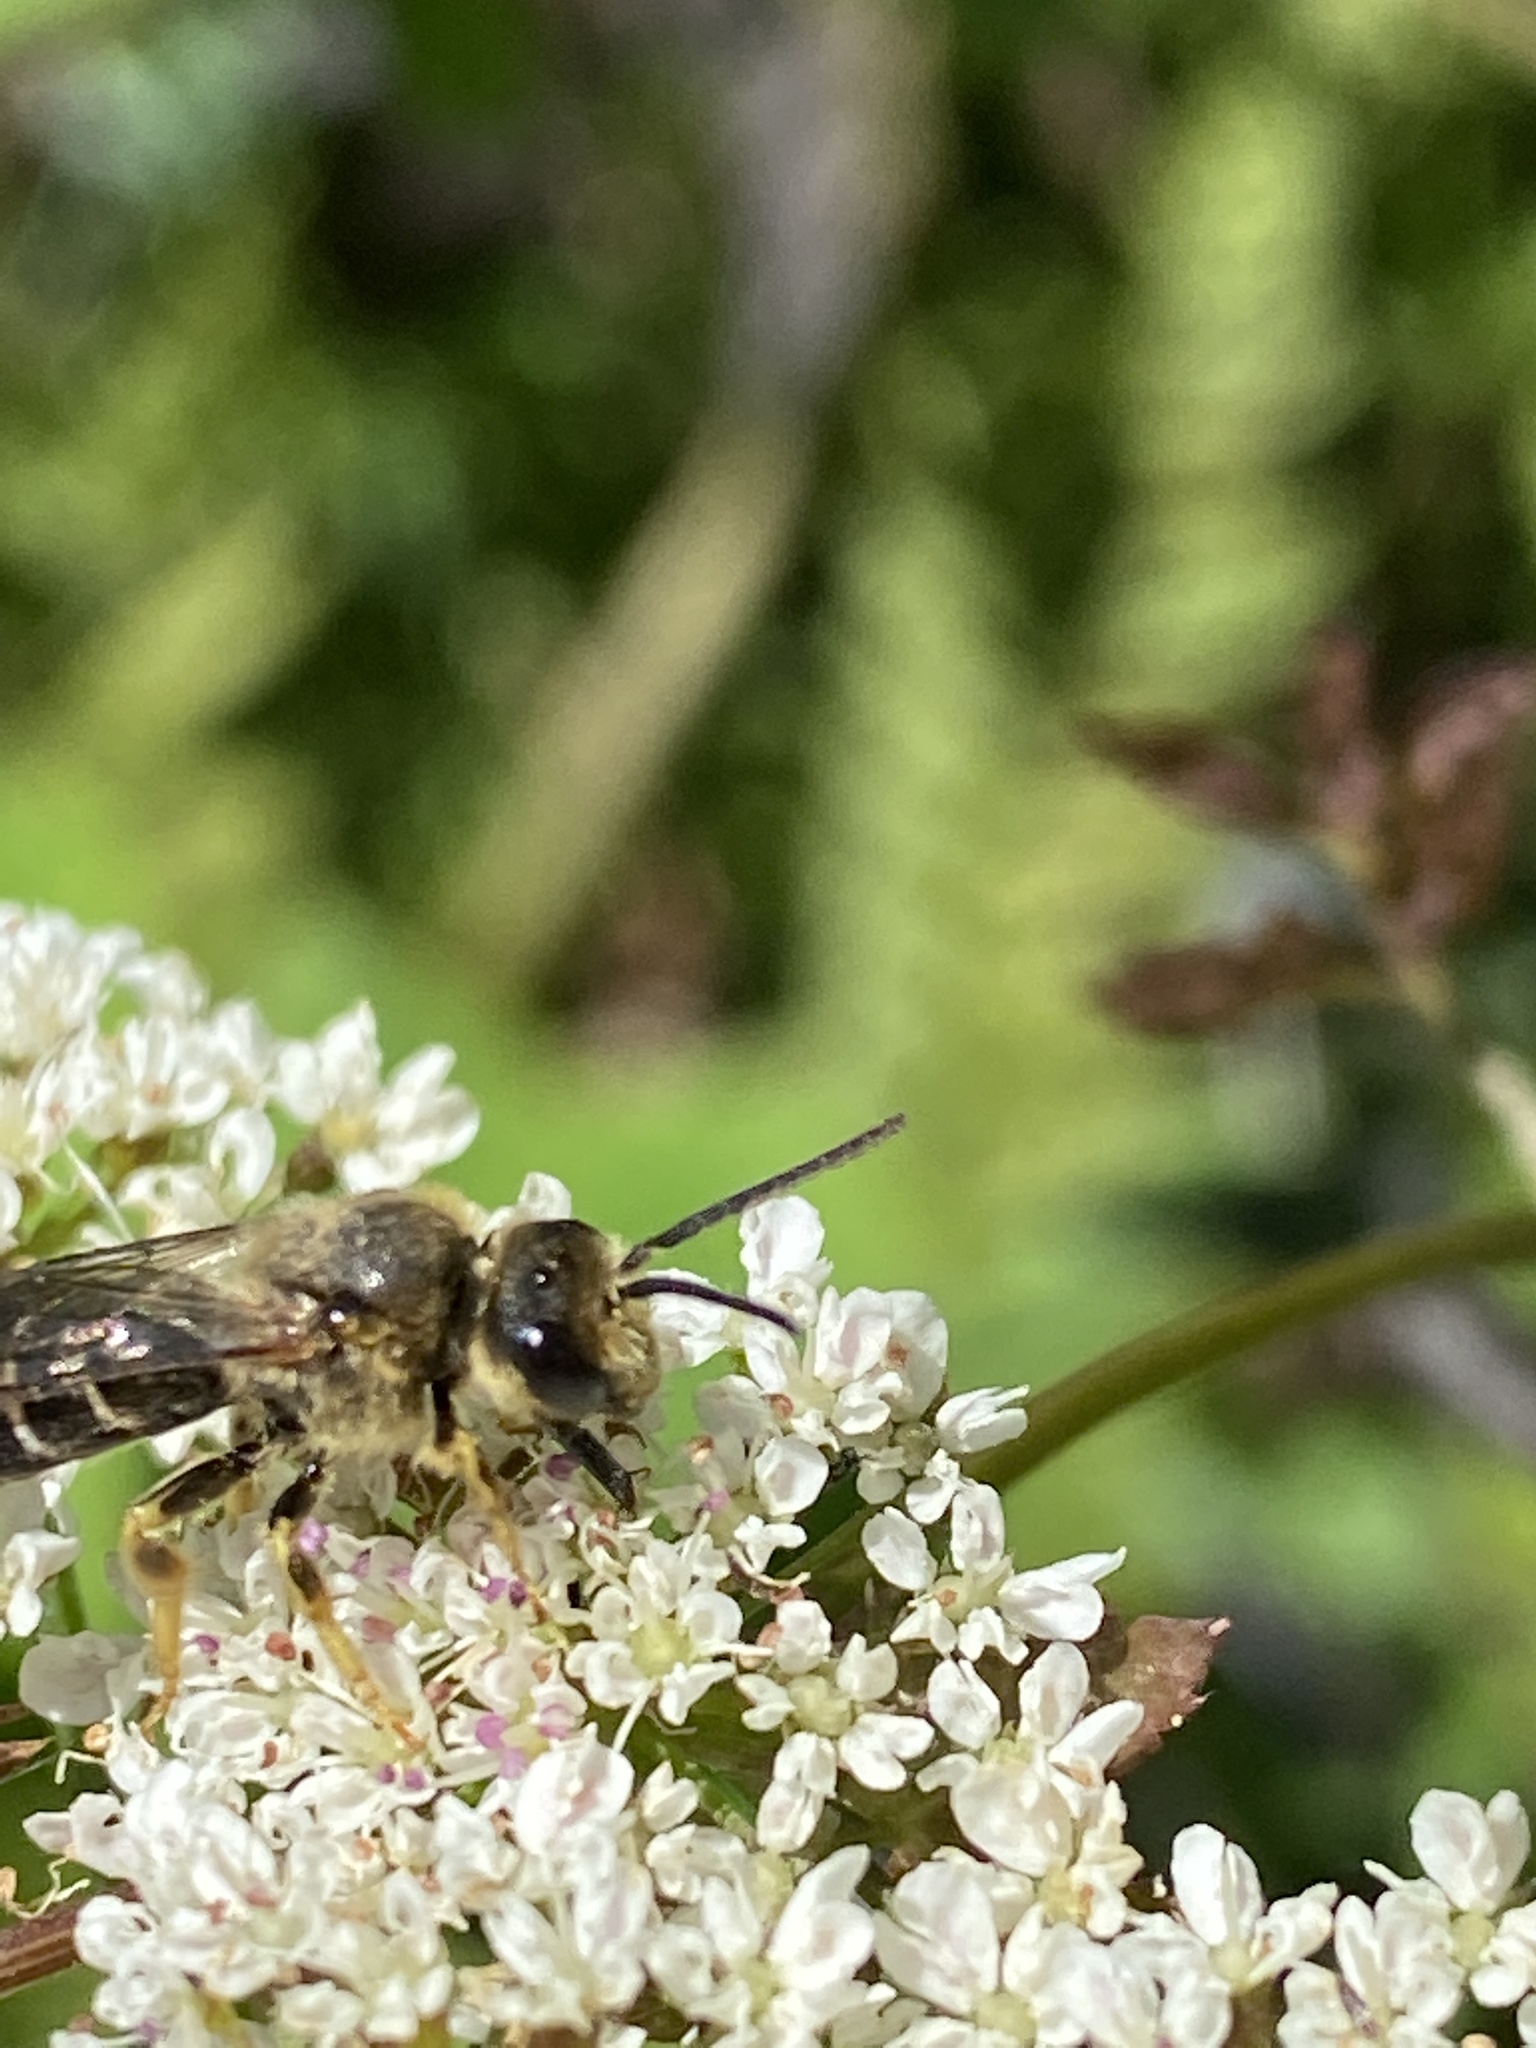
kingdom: Animalia
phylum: Arthropoda
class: Insecta
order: Hymenoptera
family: Halictidae
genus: Halictus
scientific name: Halictus rubicundus
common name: Orange-legged furrow bee
